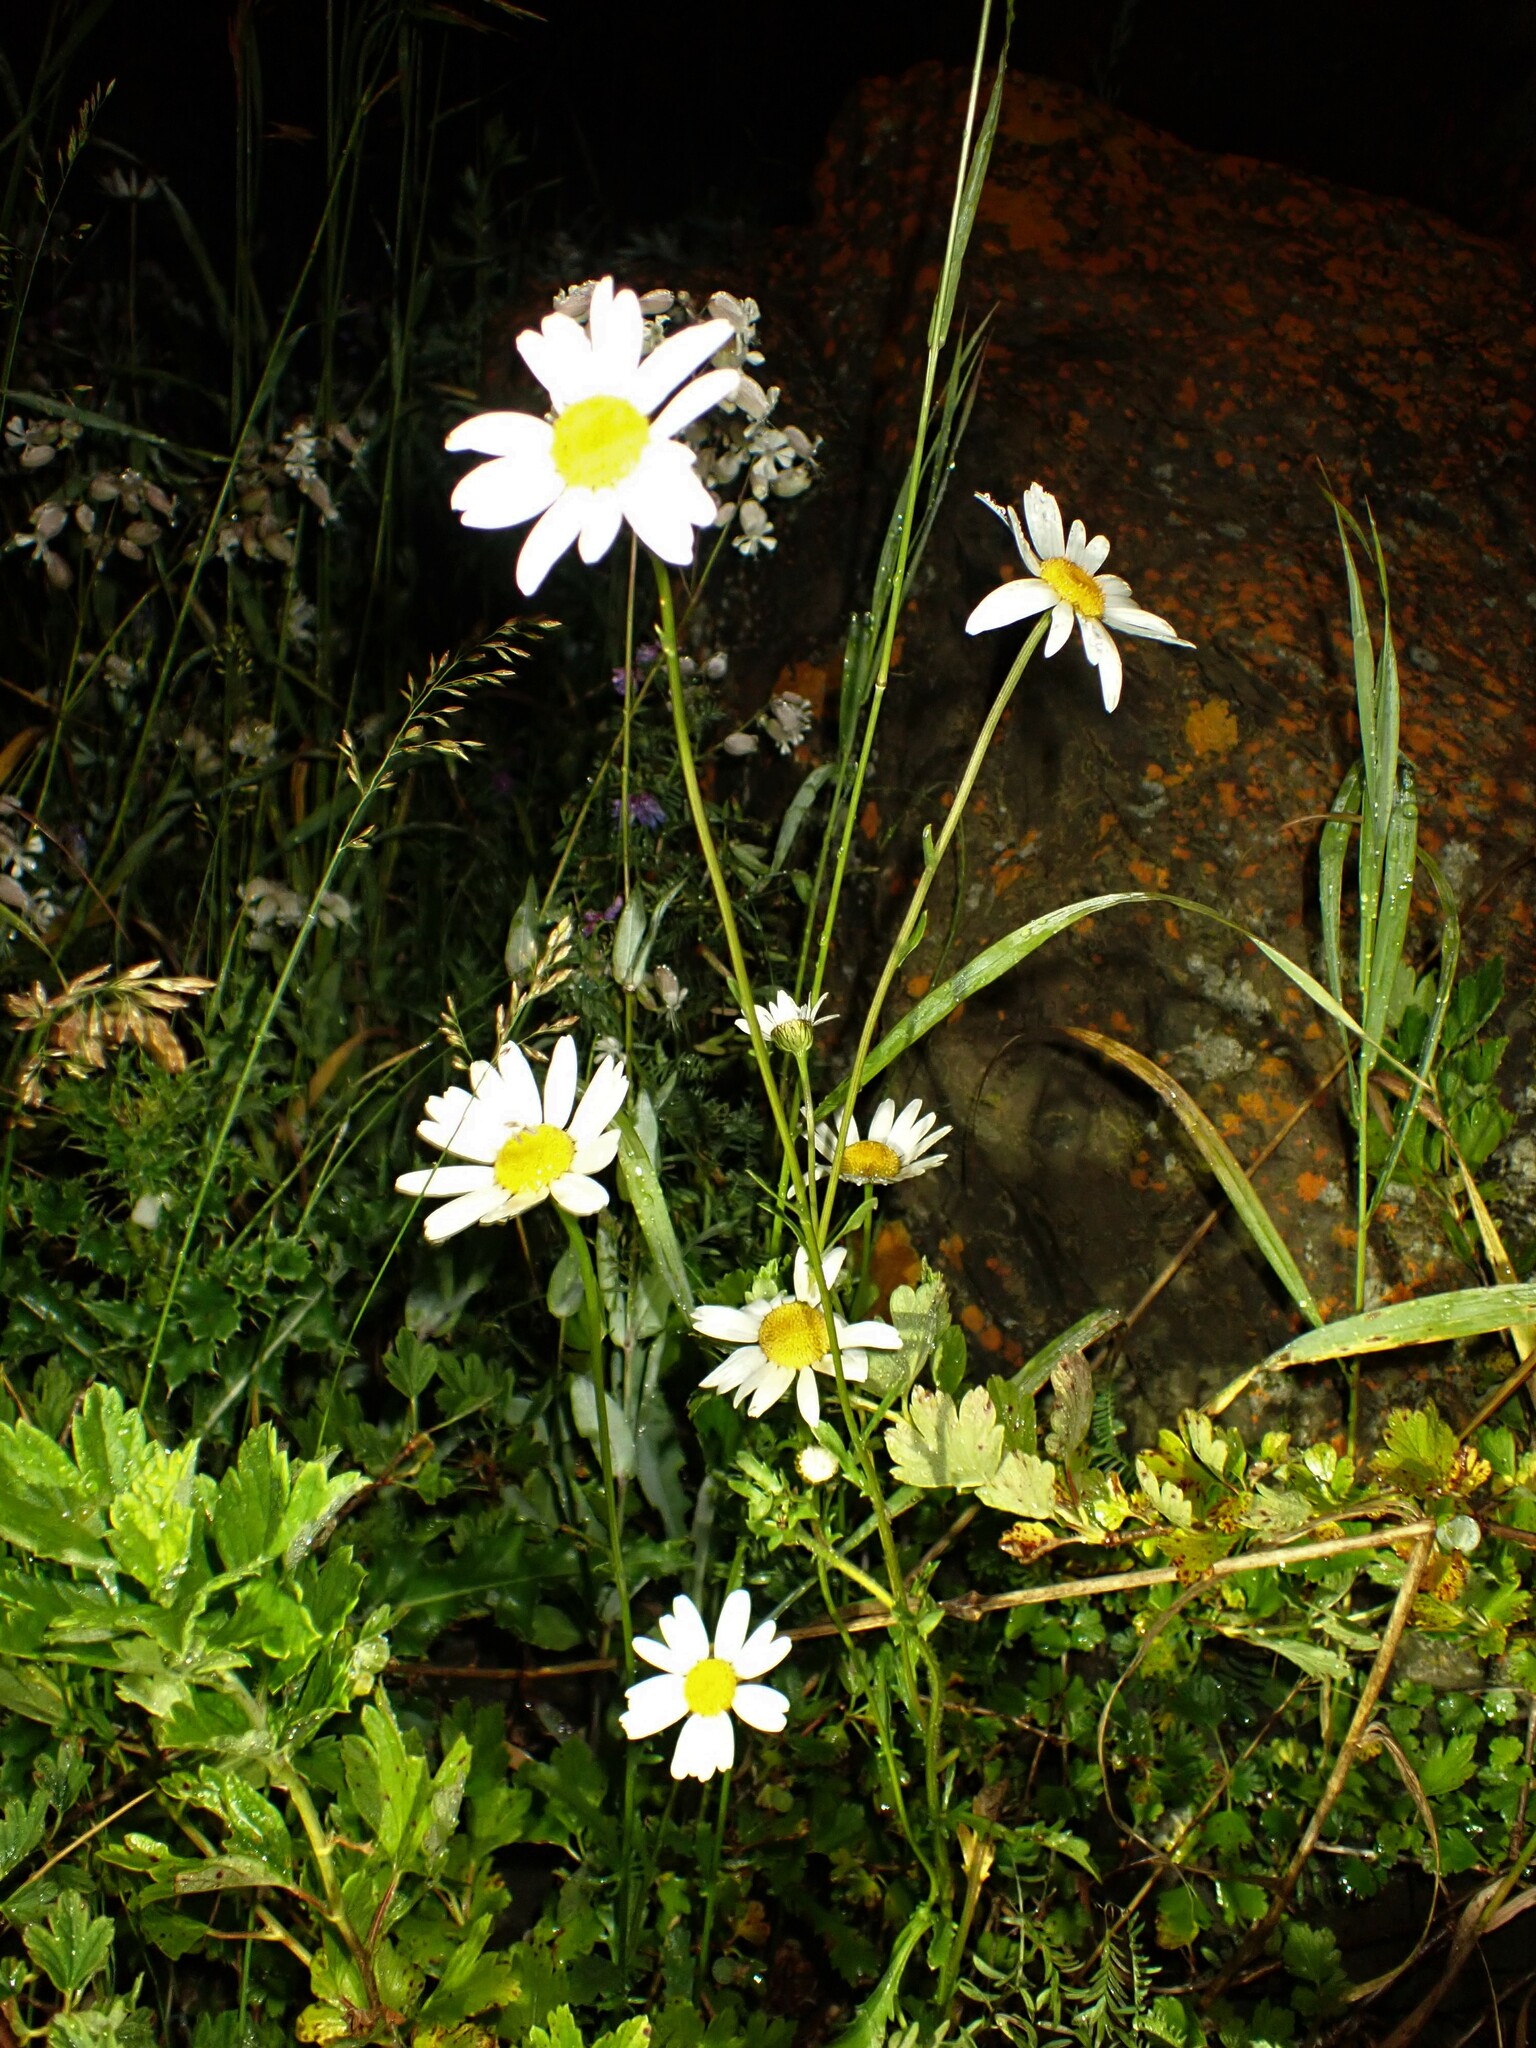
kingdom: Plantae
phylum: Tracheophyta
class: Magnoliopsida
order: Asterales
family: Asteraceae
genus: Leucanthemum
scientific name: Leucanthemum vulgare
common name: Oxeye daisy
